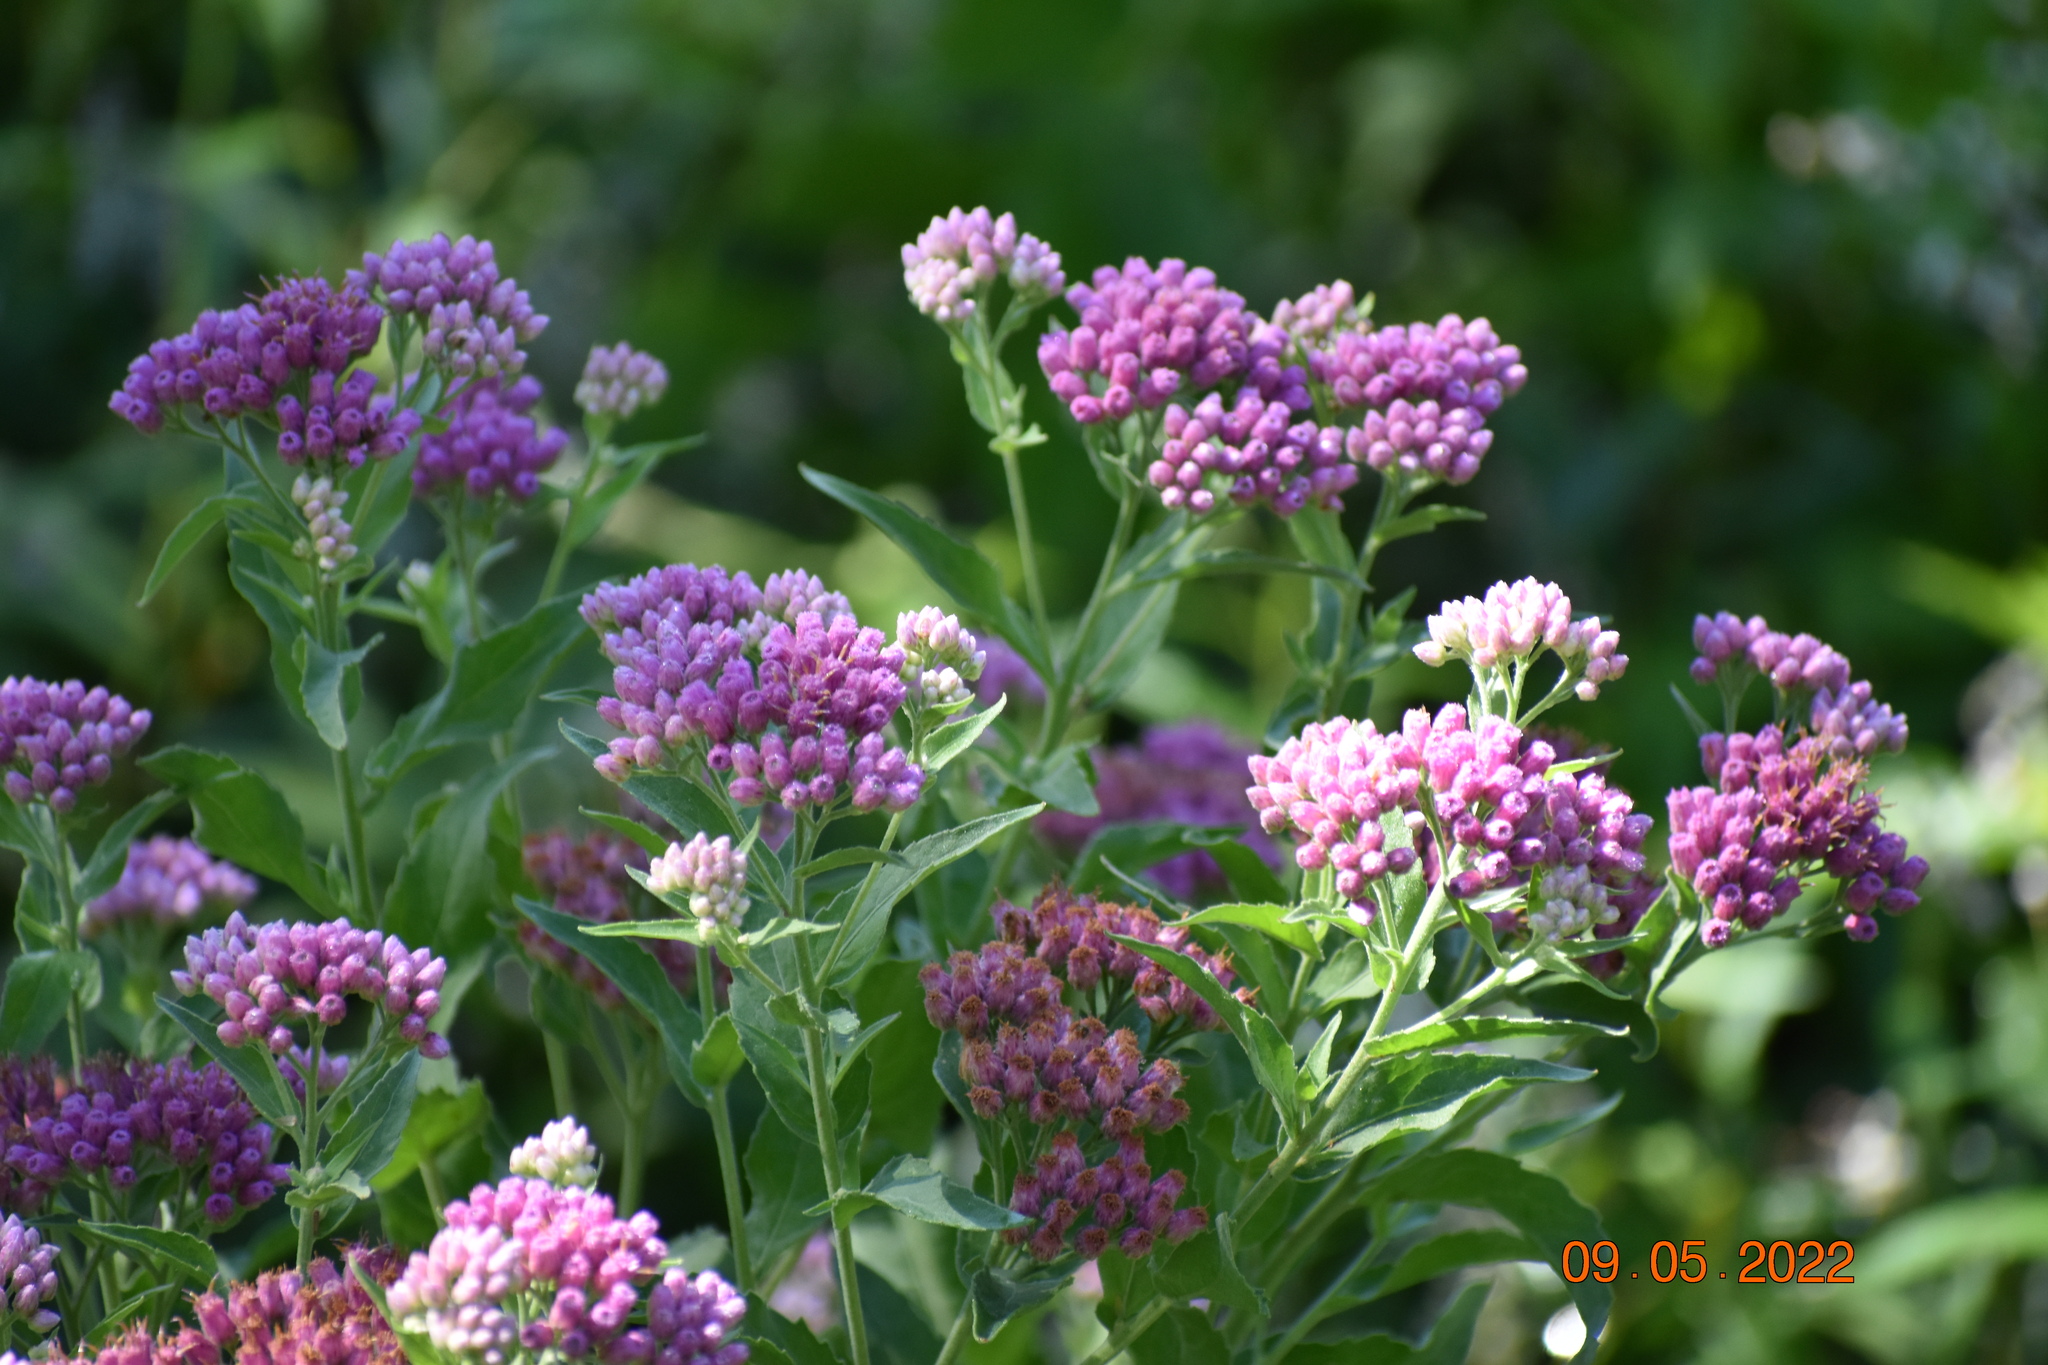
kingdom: Plantae
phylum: Tracheophyta
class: Magnoliopsida
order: Asterales
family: Asteraceae
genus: Pluchea
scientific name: Pluchea odorata
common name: Saltmarsh fleabane
